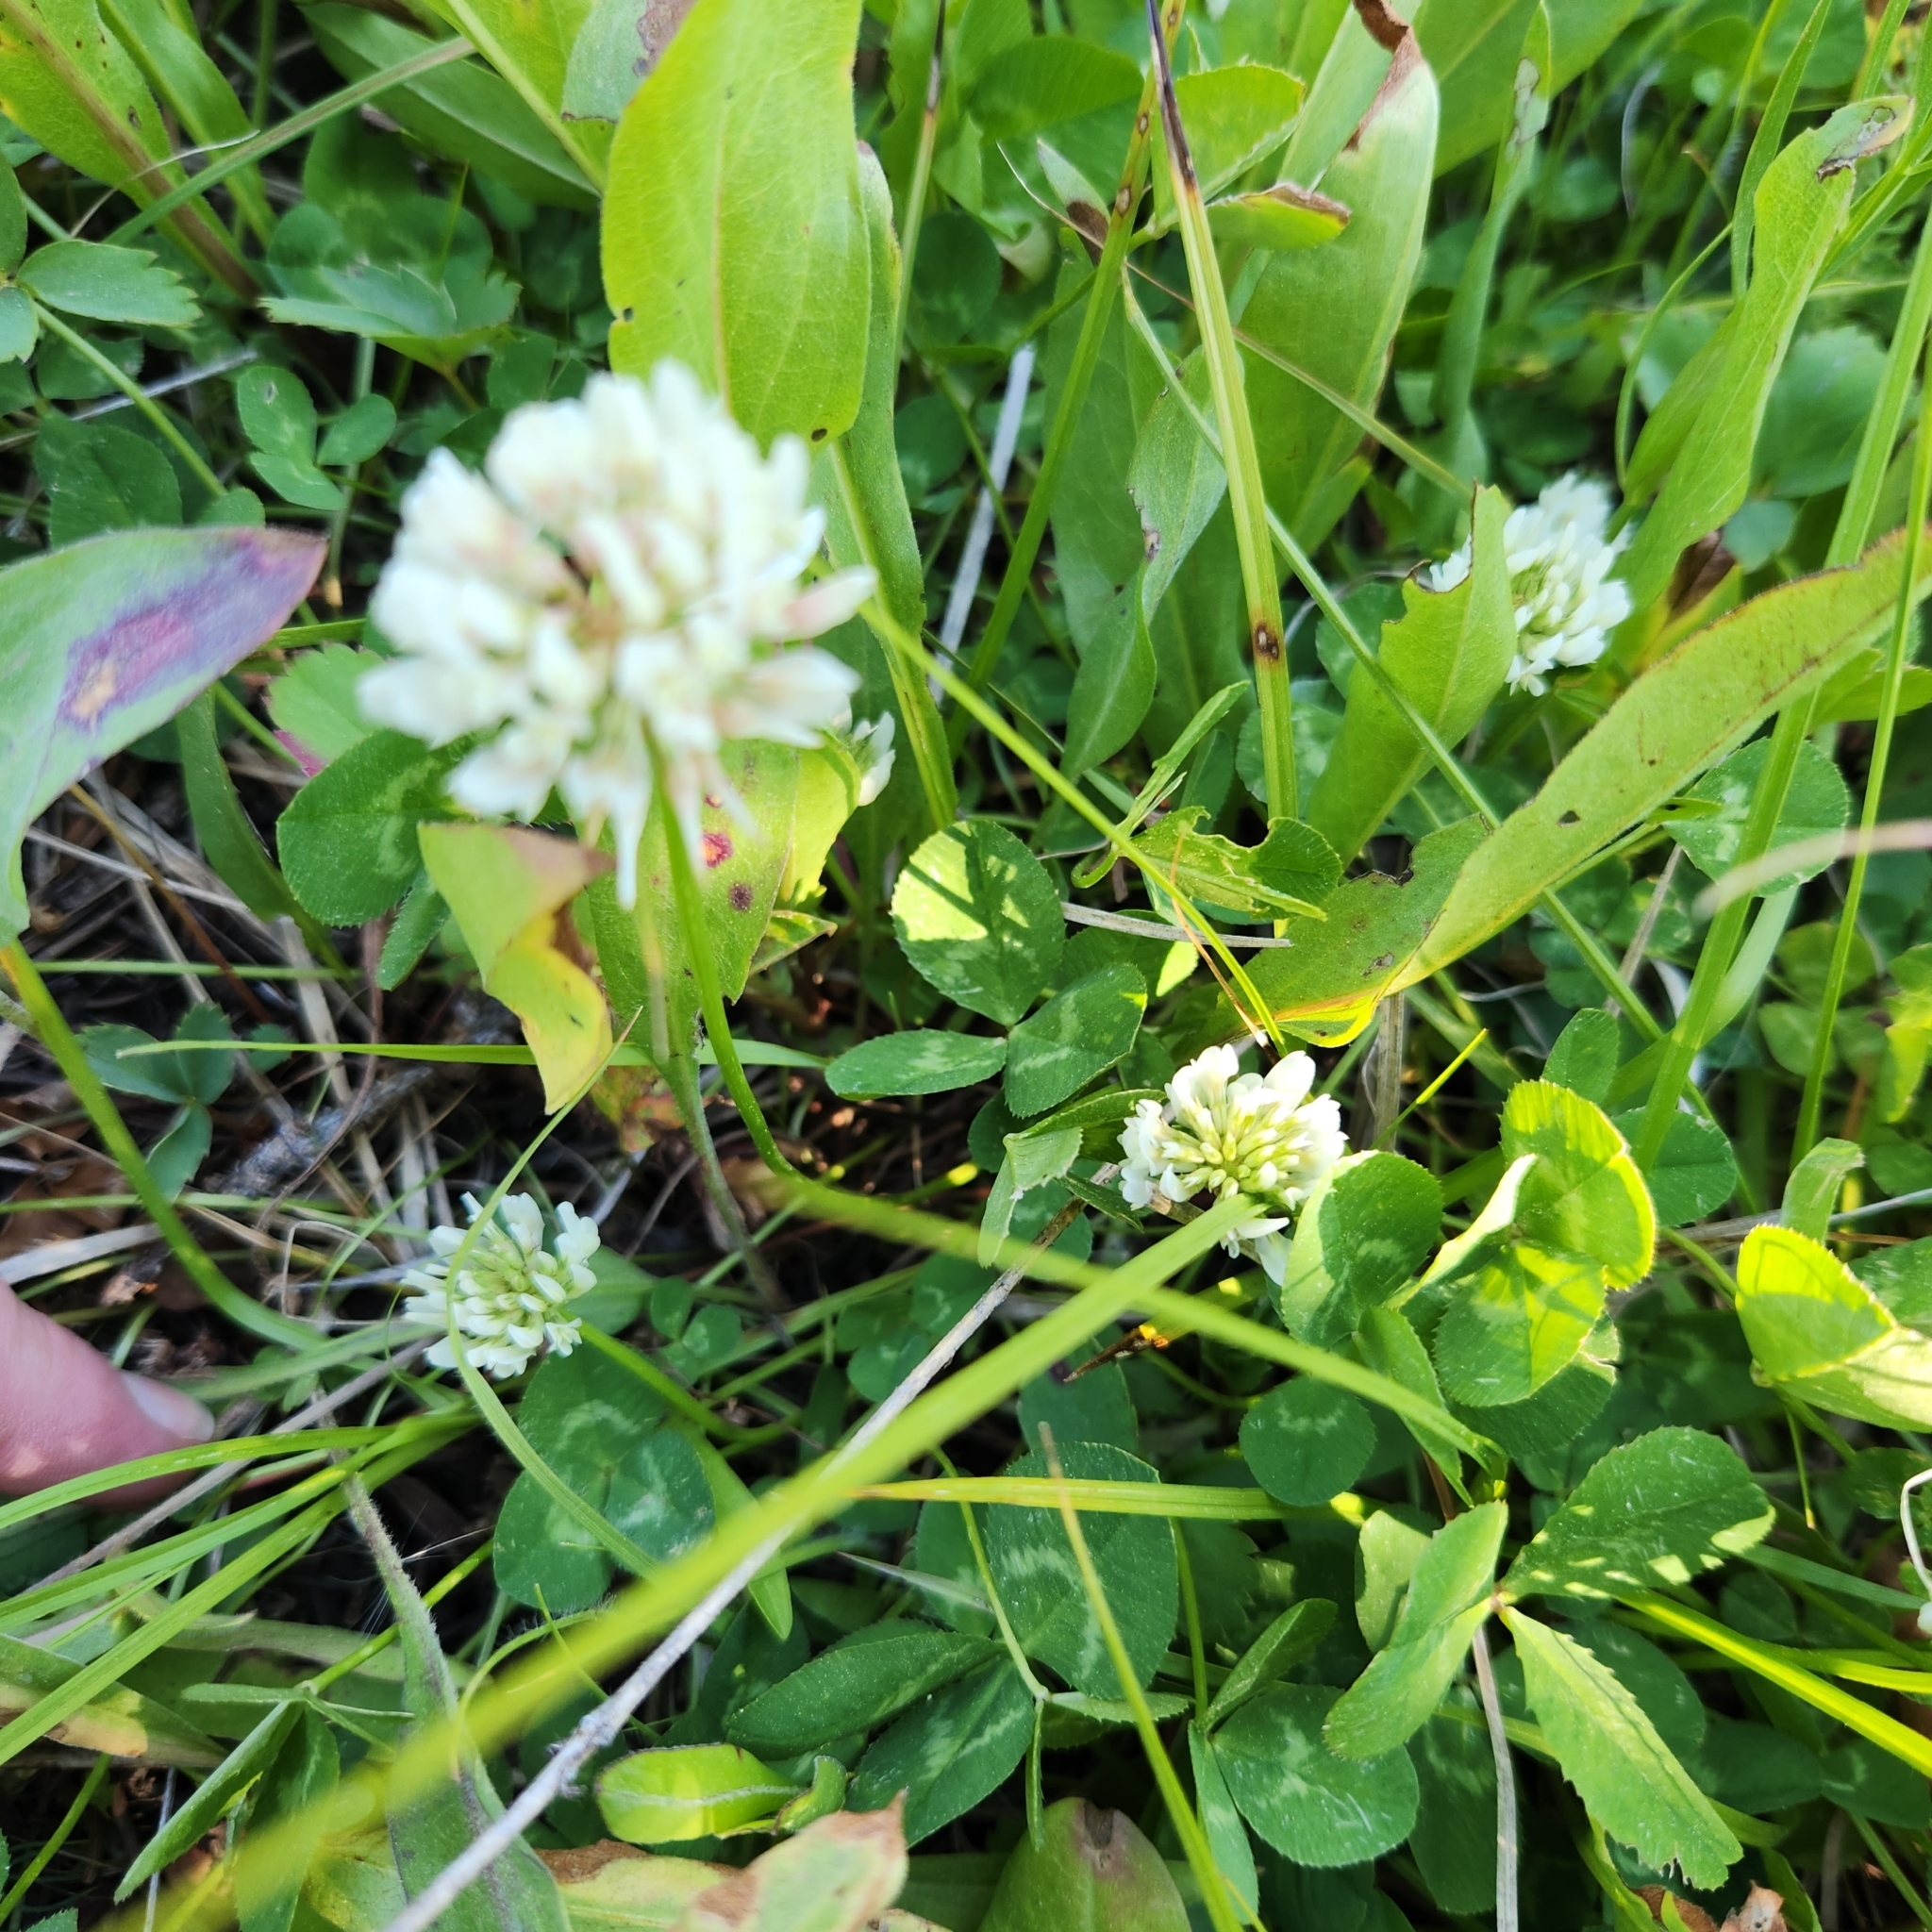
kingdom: Plantae
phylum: Tracheophyta
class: Magnoliopsida
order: Fabales
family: Fabaceae
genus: Trifolium
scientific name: Trifolium repens
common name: White clover
